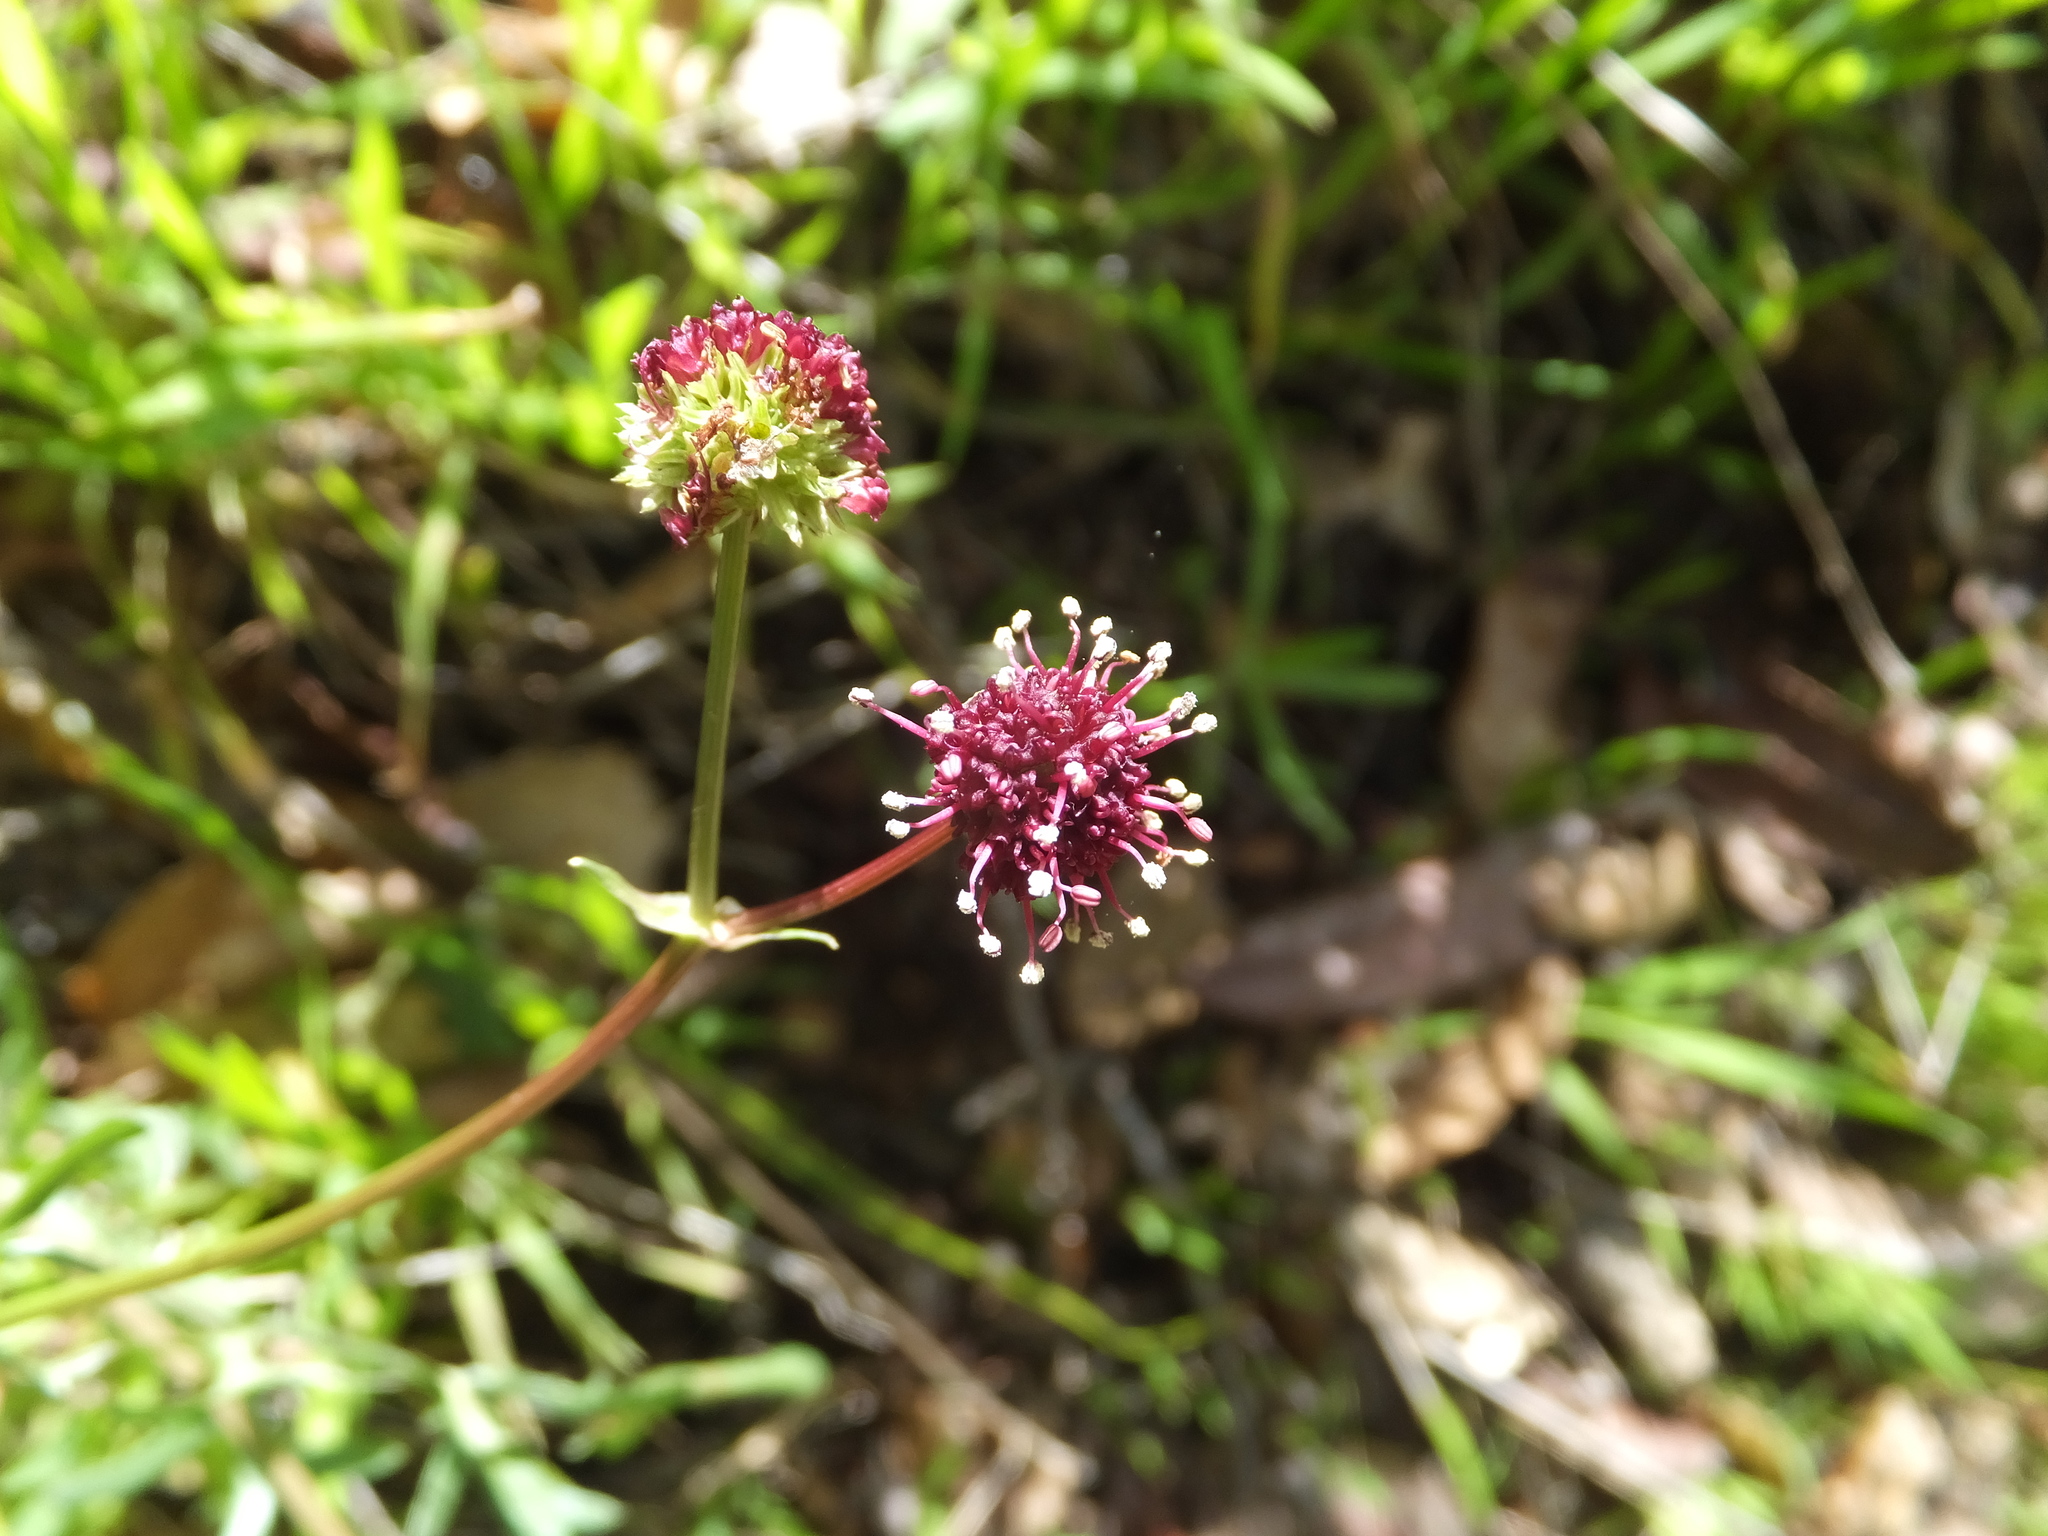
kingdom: Plantae
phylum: Tracheophyta
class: Magnoliopsida
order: Apiales
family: Apiaceae
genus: Sanicula
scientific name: Sanicula bipinnatifida
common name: Shoe-buttons
